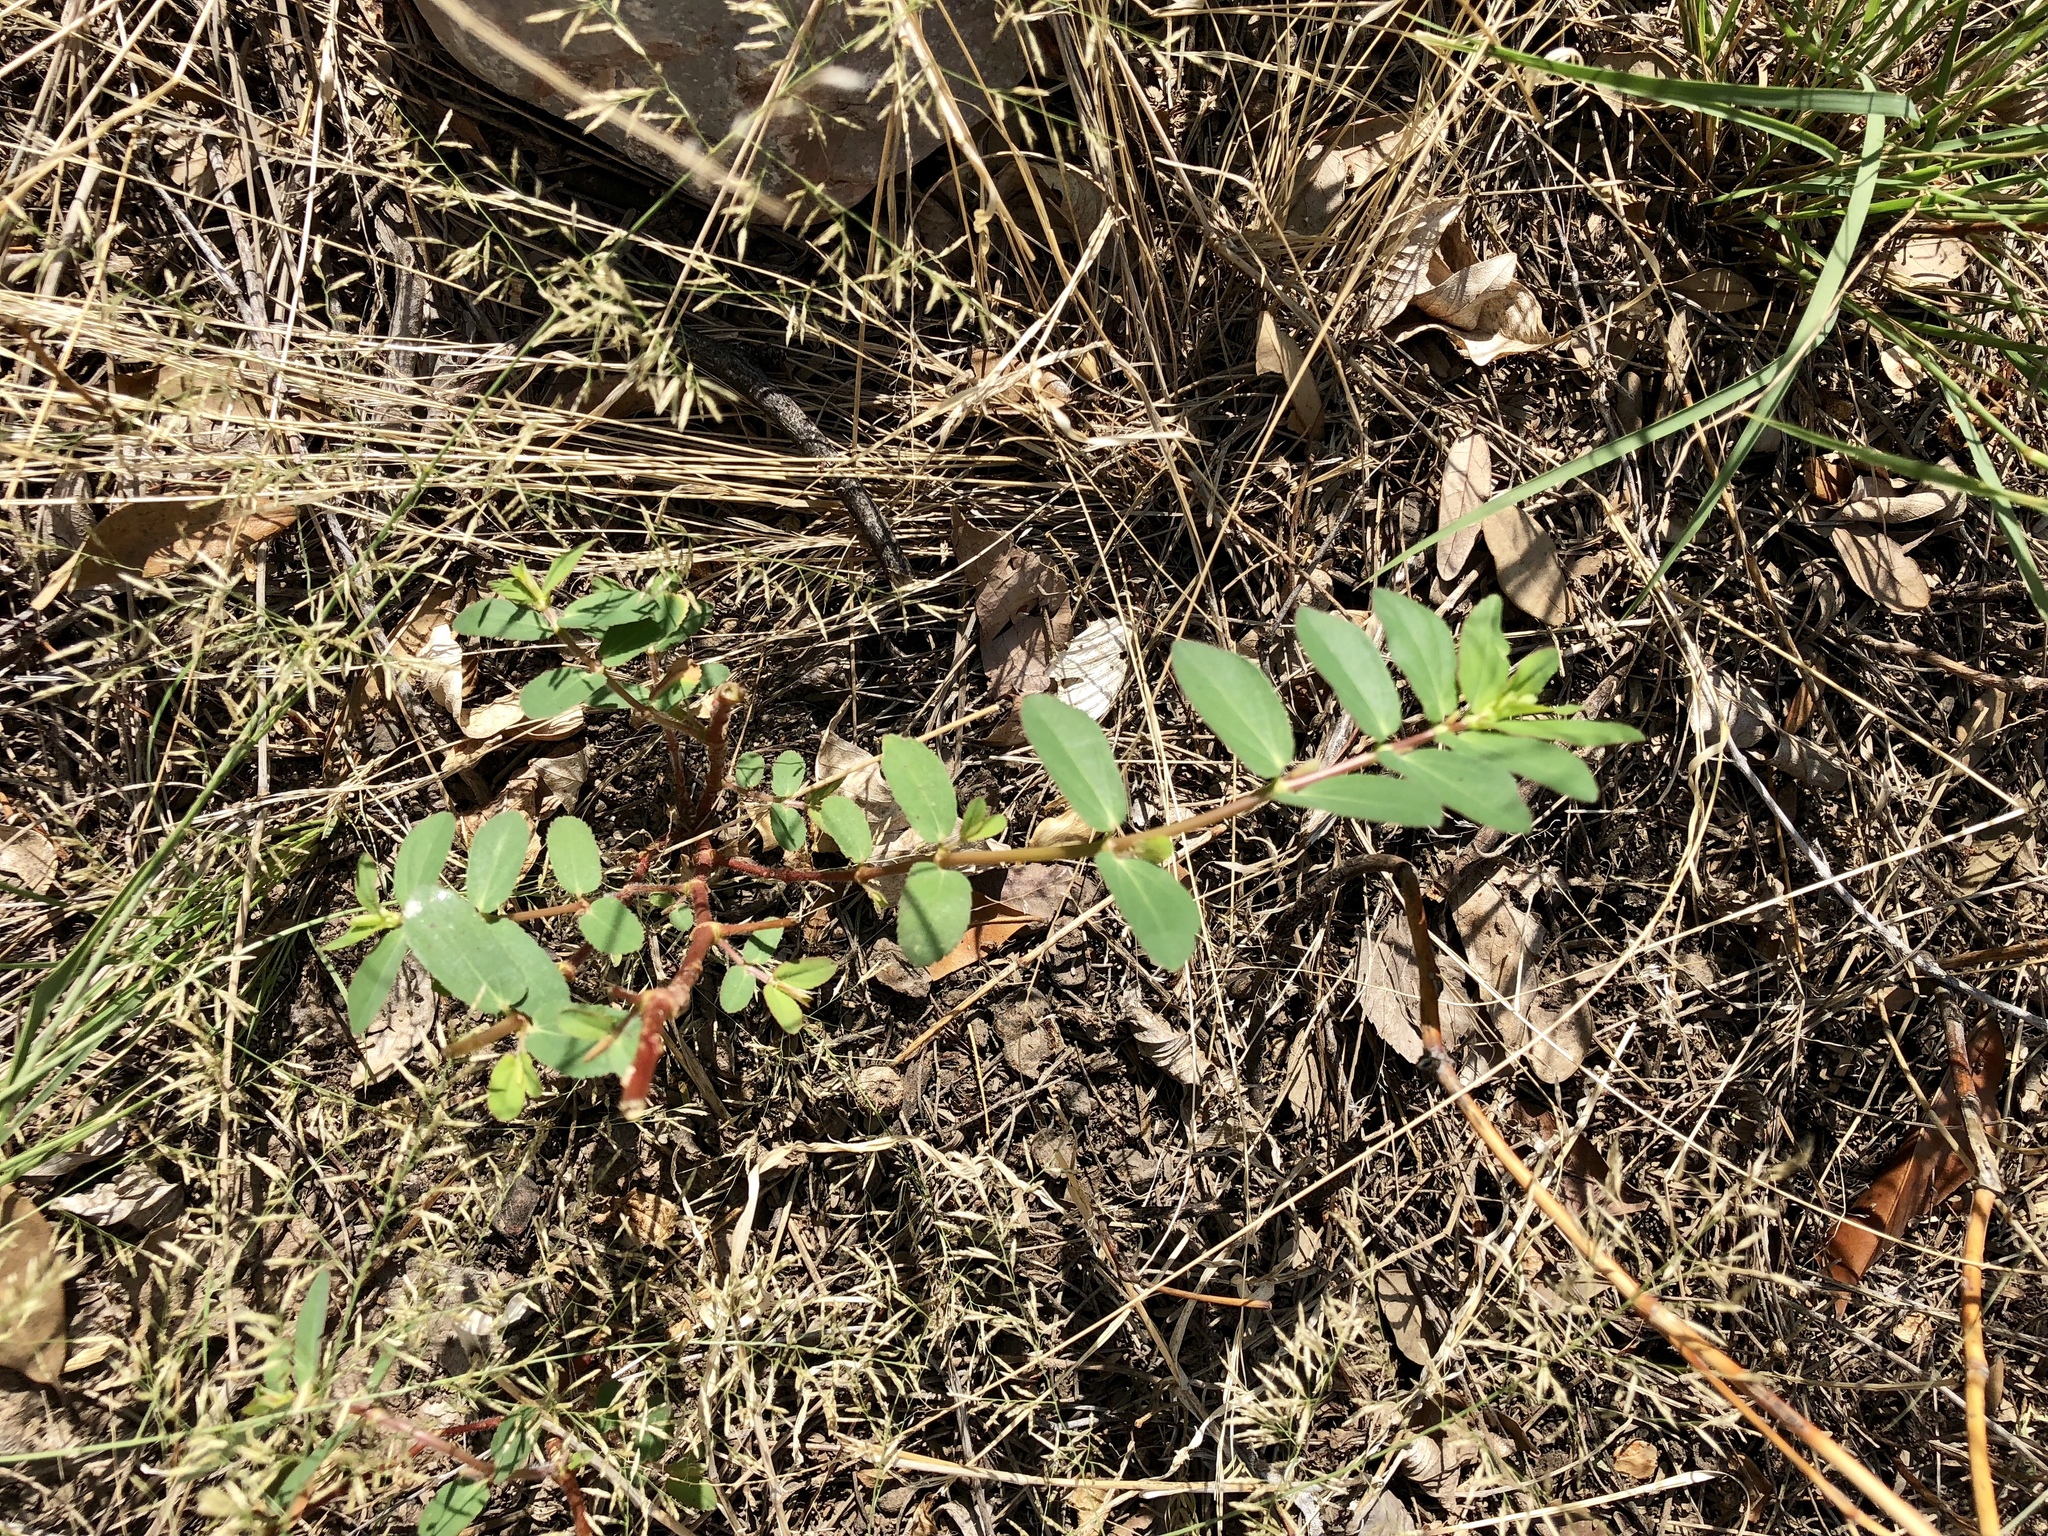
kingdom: Plantae
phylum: Tracheophyta
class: Magnoliopsida
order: Malpighiales
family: Euphorbiaceae
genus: Euphorbia
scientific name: Euphorbia hyssopifolia
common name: Hyssopleaf sandmat
